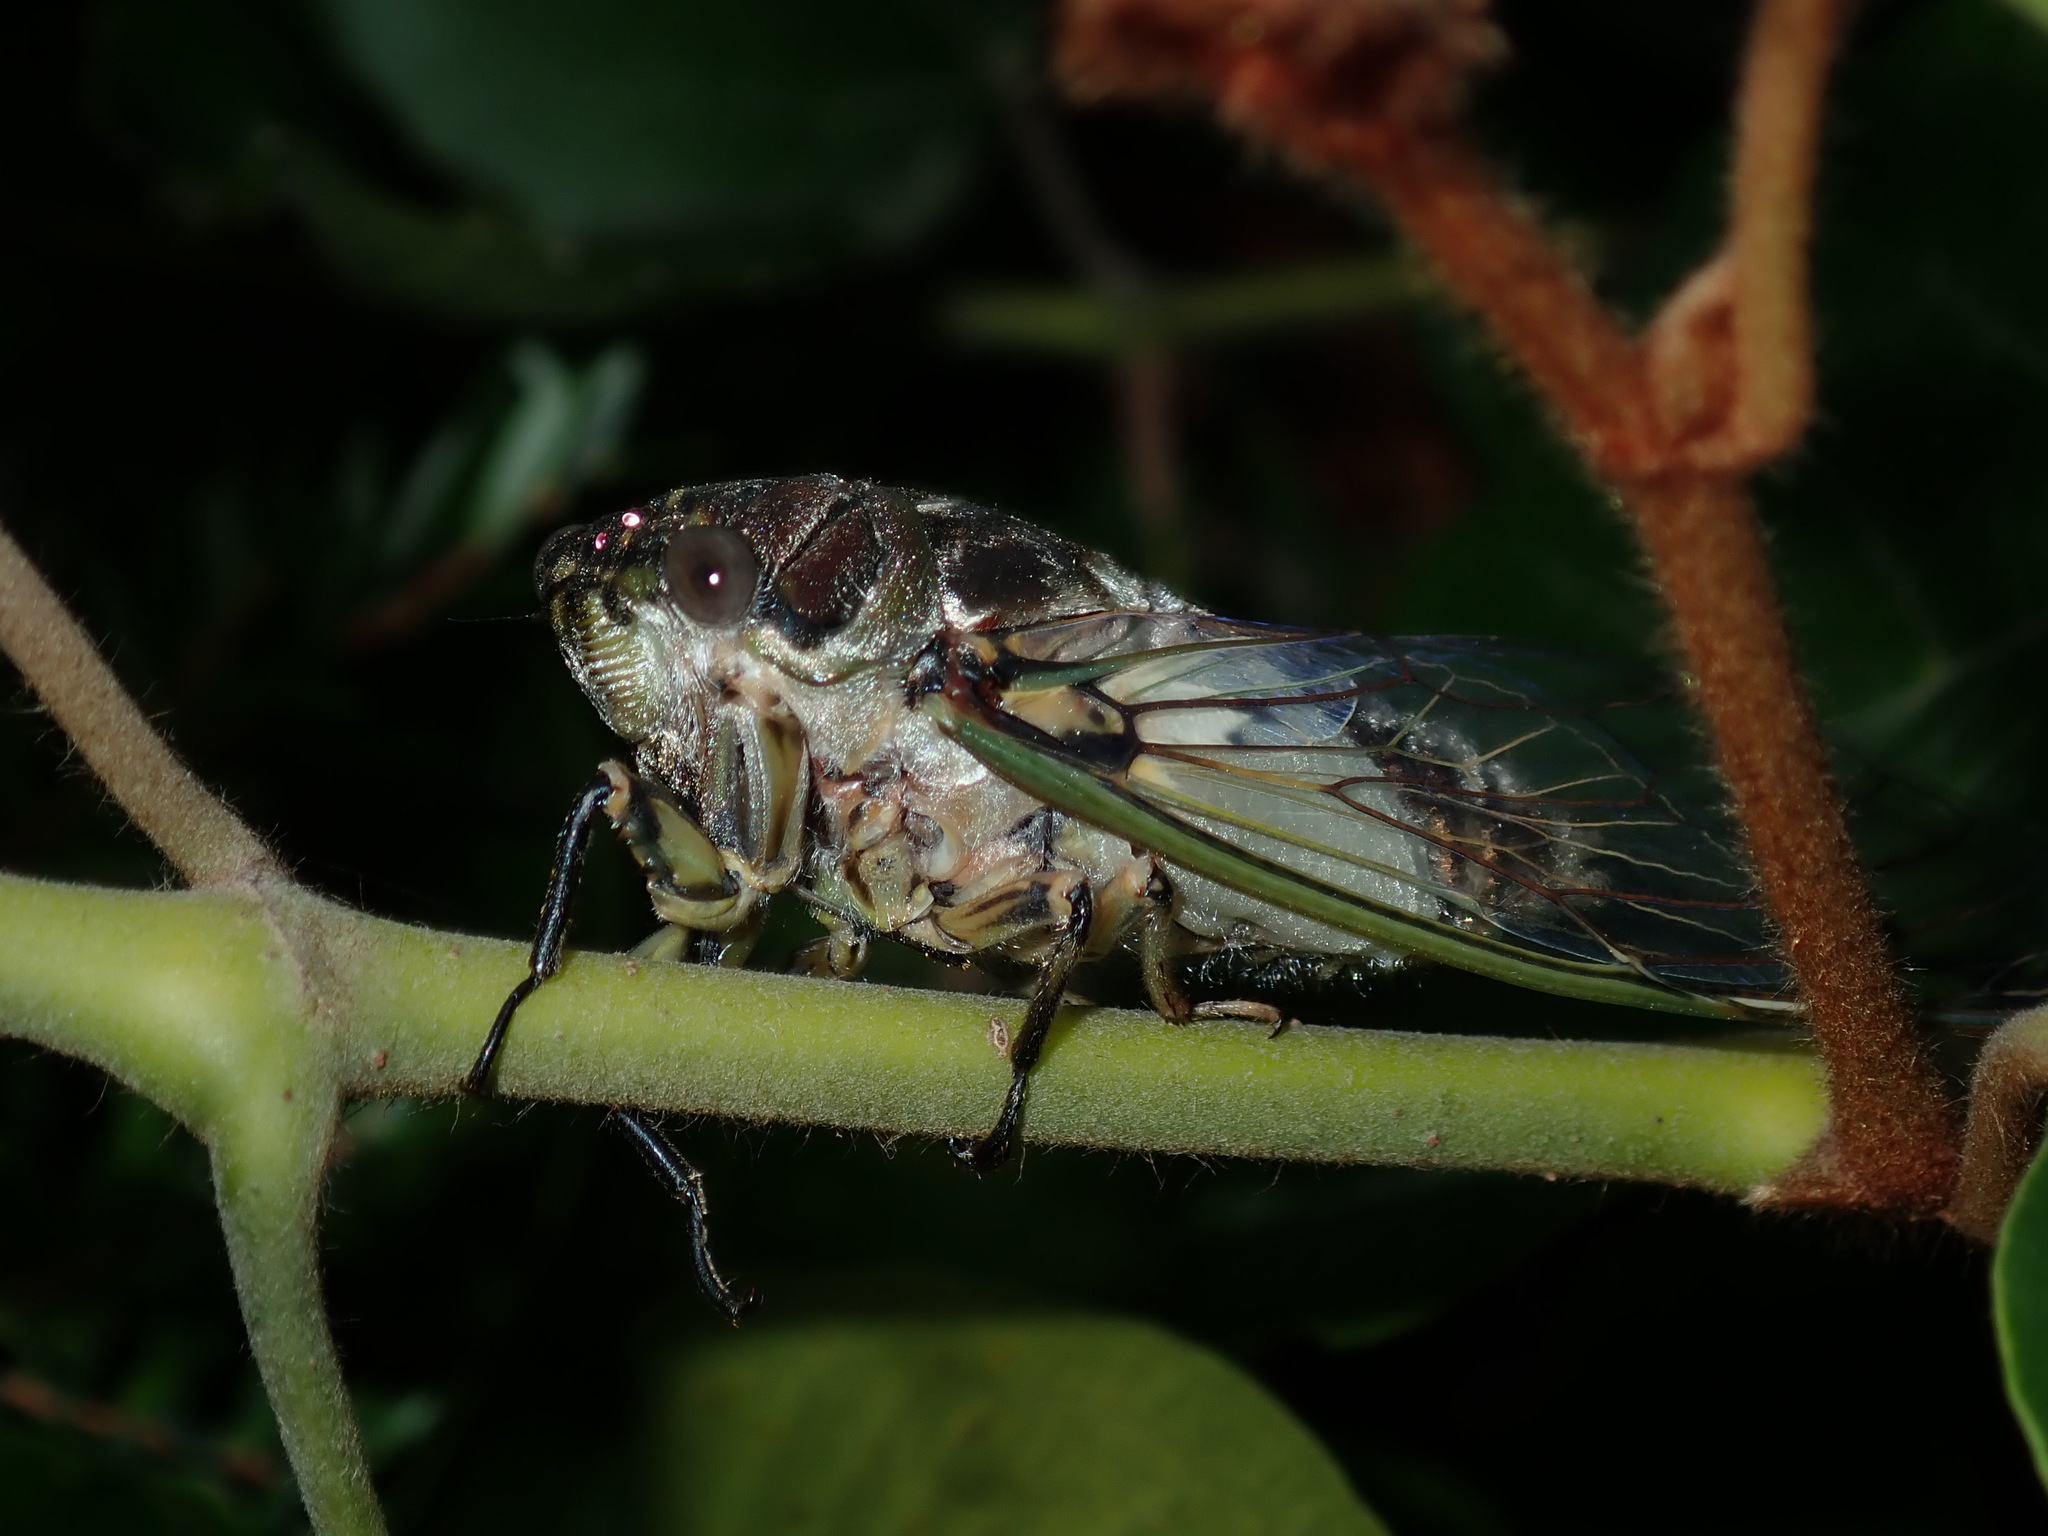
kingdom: Animalia
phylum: Arthropoda
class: Insecta
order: Hemiptera
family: Cicadidae
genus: Arunta
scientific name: Arunta perulata
